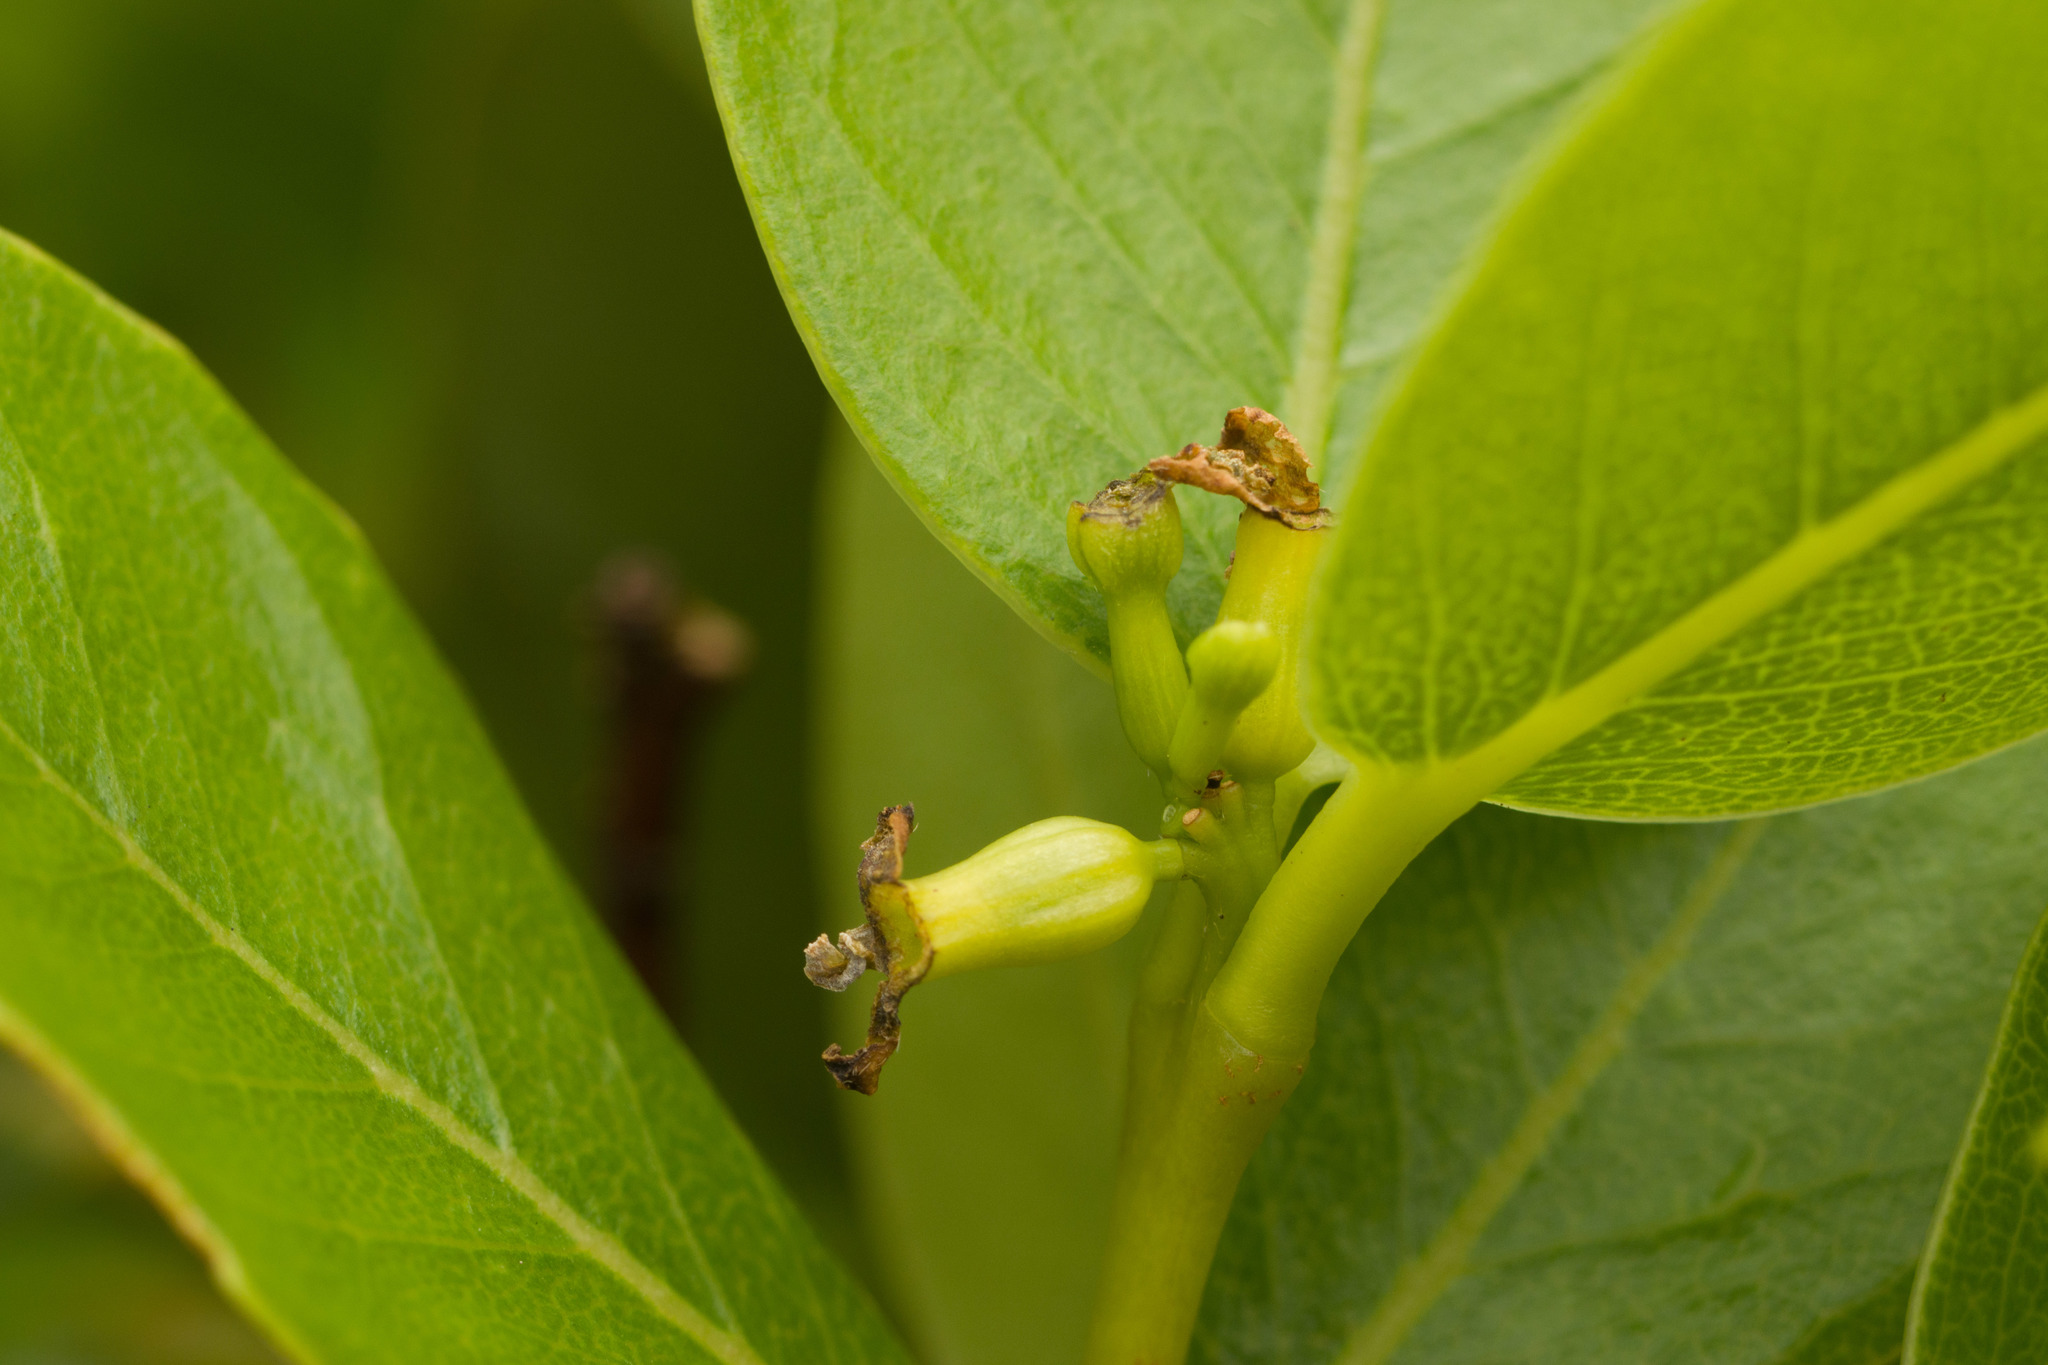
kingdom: Plantae
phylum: Tracheophyta
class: Magnoliopsida
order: Malvales
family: Thymelaeaceae
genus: Wikstroemia
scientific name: Wikstroemia oahuensis
